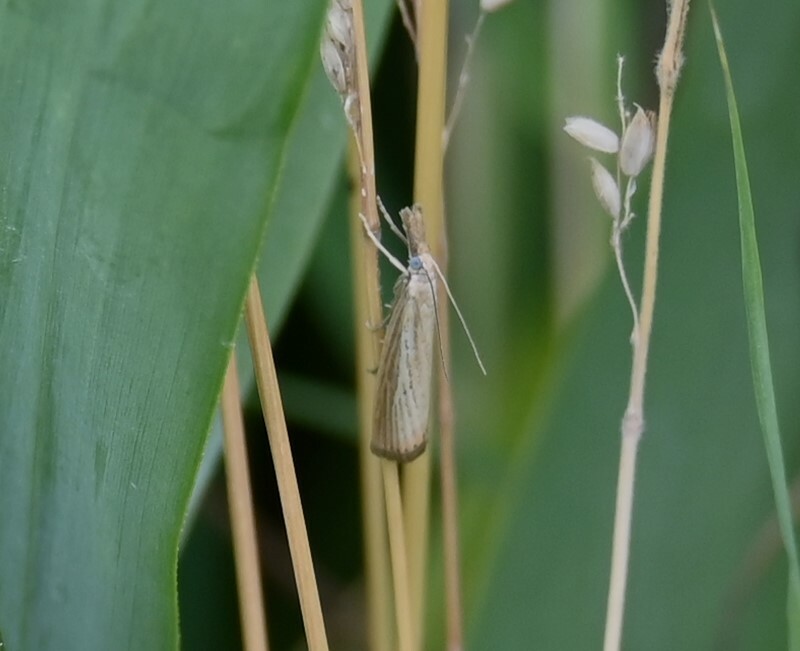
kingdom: Animalia
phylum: Arthropoda
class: Insecta
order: Lepidoptera
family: Crambidae
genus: Agriphila
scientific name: Agriphila straminella
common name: Straw grass-veneer
